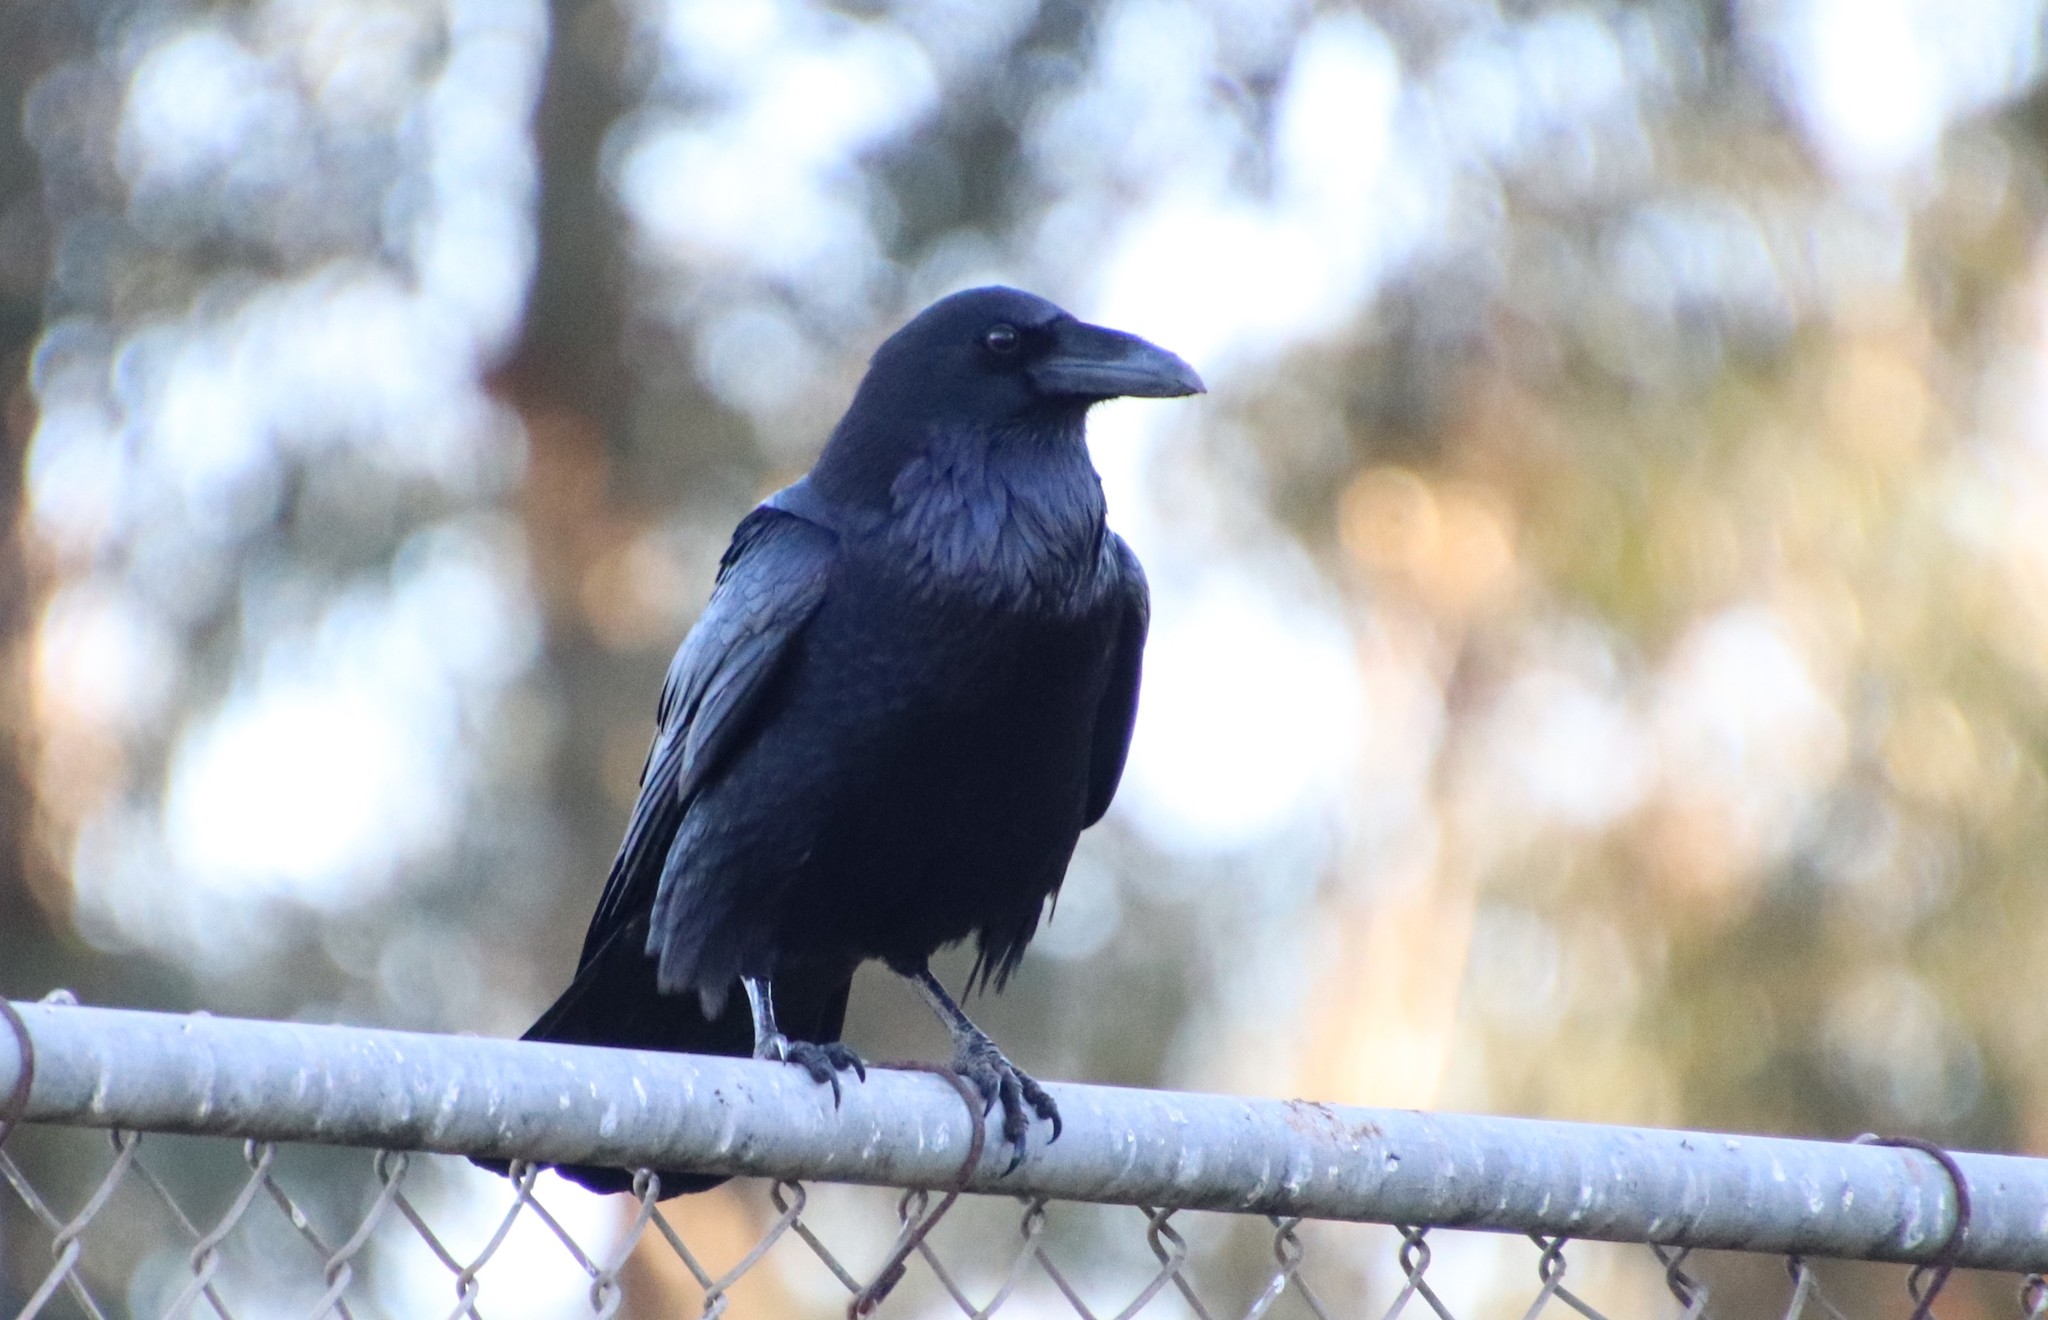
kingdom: Animalia
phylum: Chordata
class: Aves
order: Passeriformes
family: Corvidae
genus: Corvus
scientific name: Corvus corax
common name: Common raven
